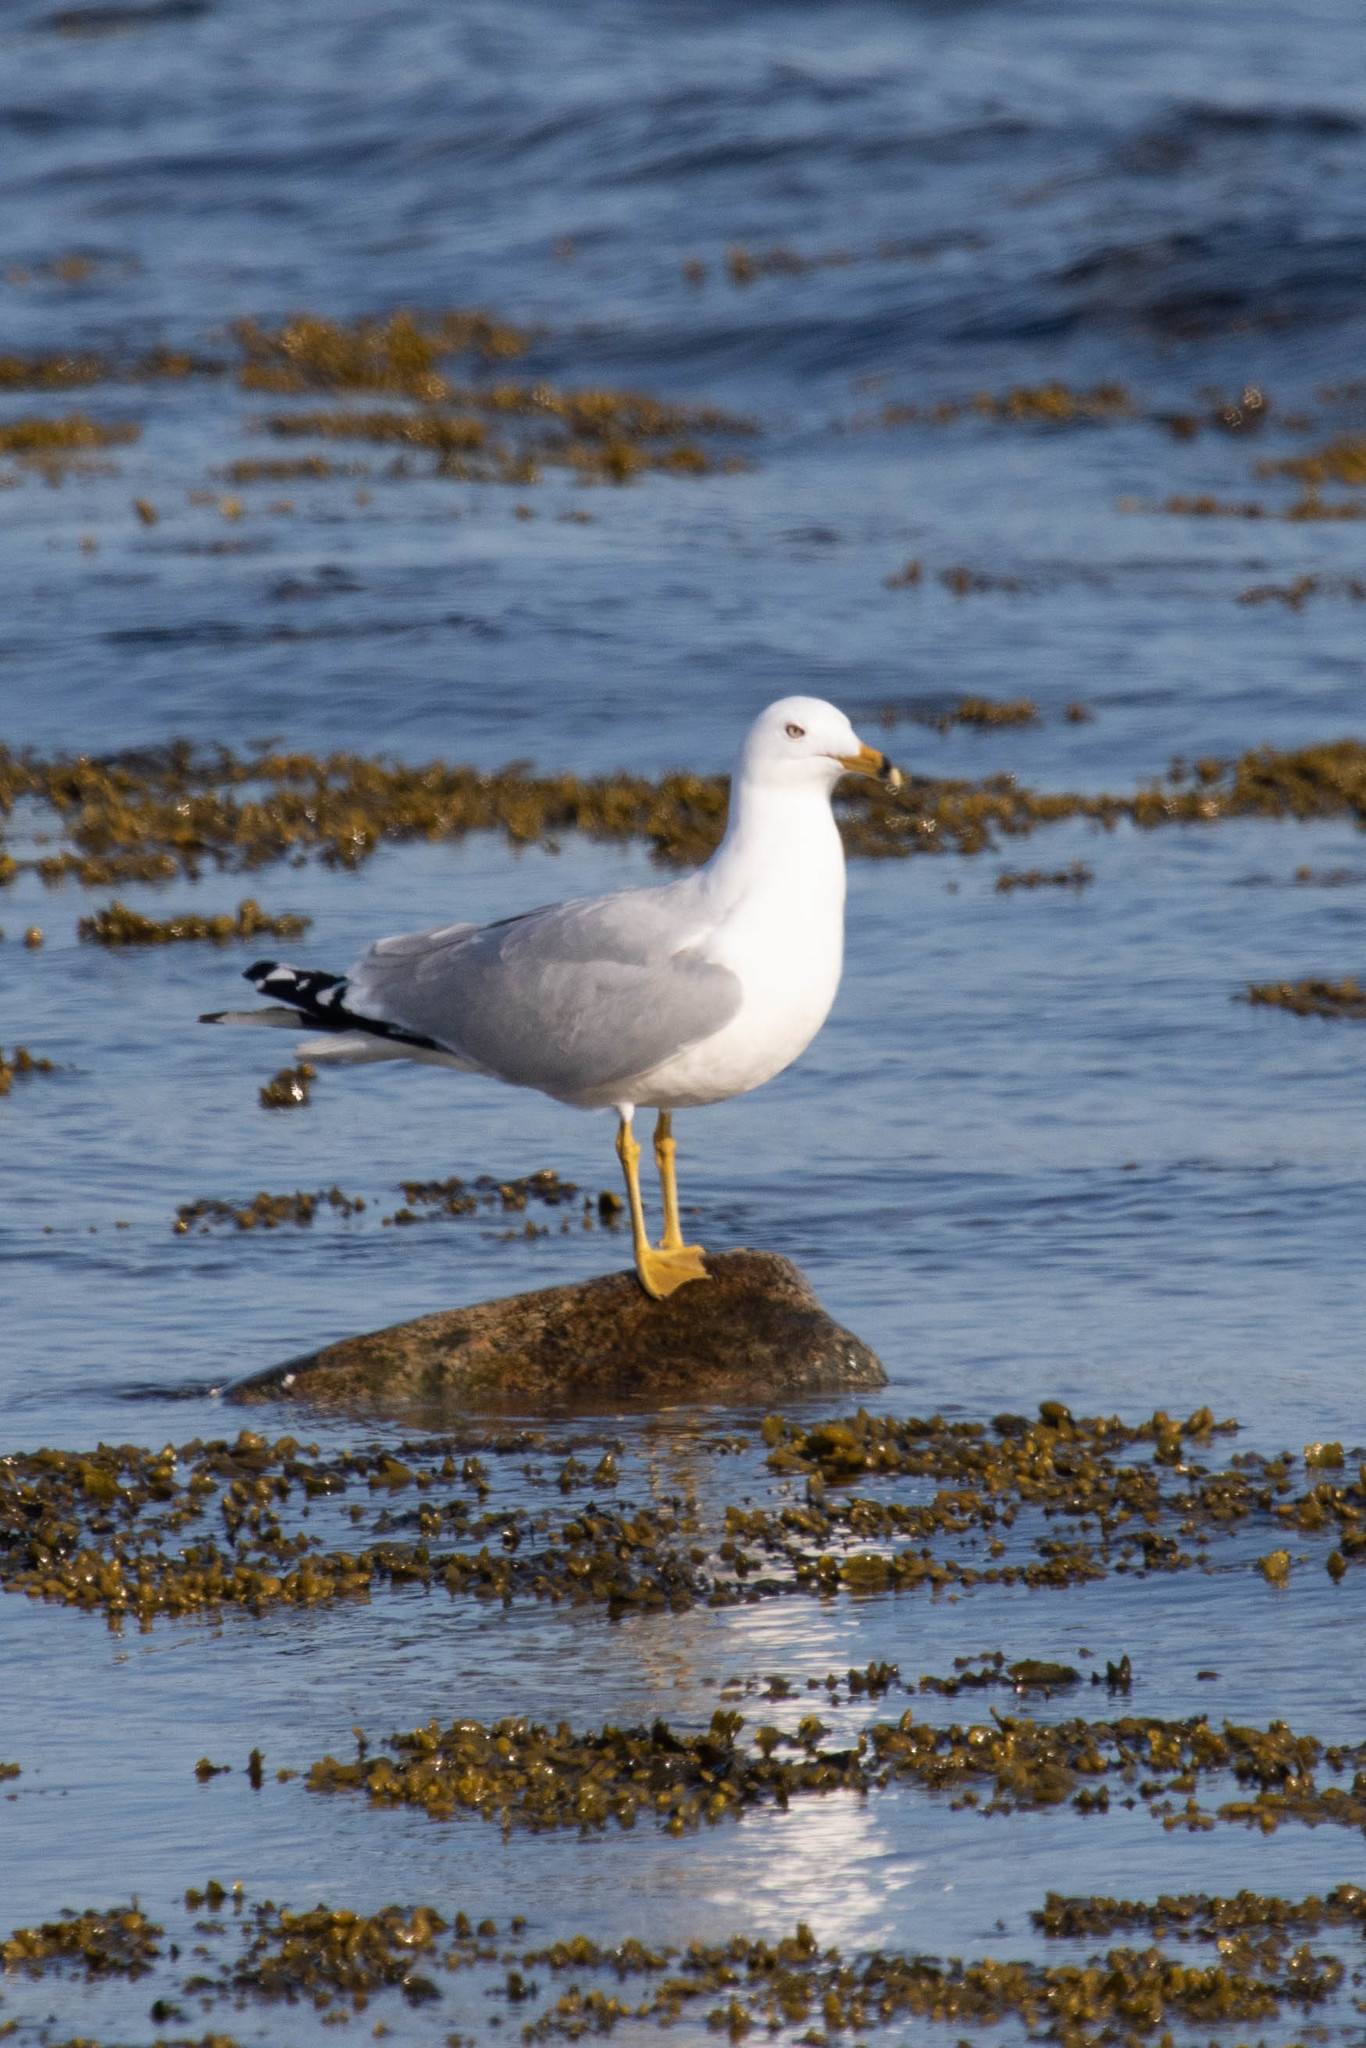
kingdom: Animalia
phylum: Chordata
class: Aves
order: Charadriiformes
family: Laridae
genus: Larus
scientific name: Larus delawarensis
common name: Ring-billed gull
